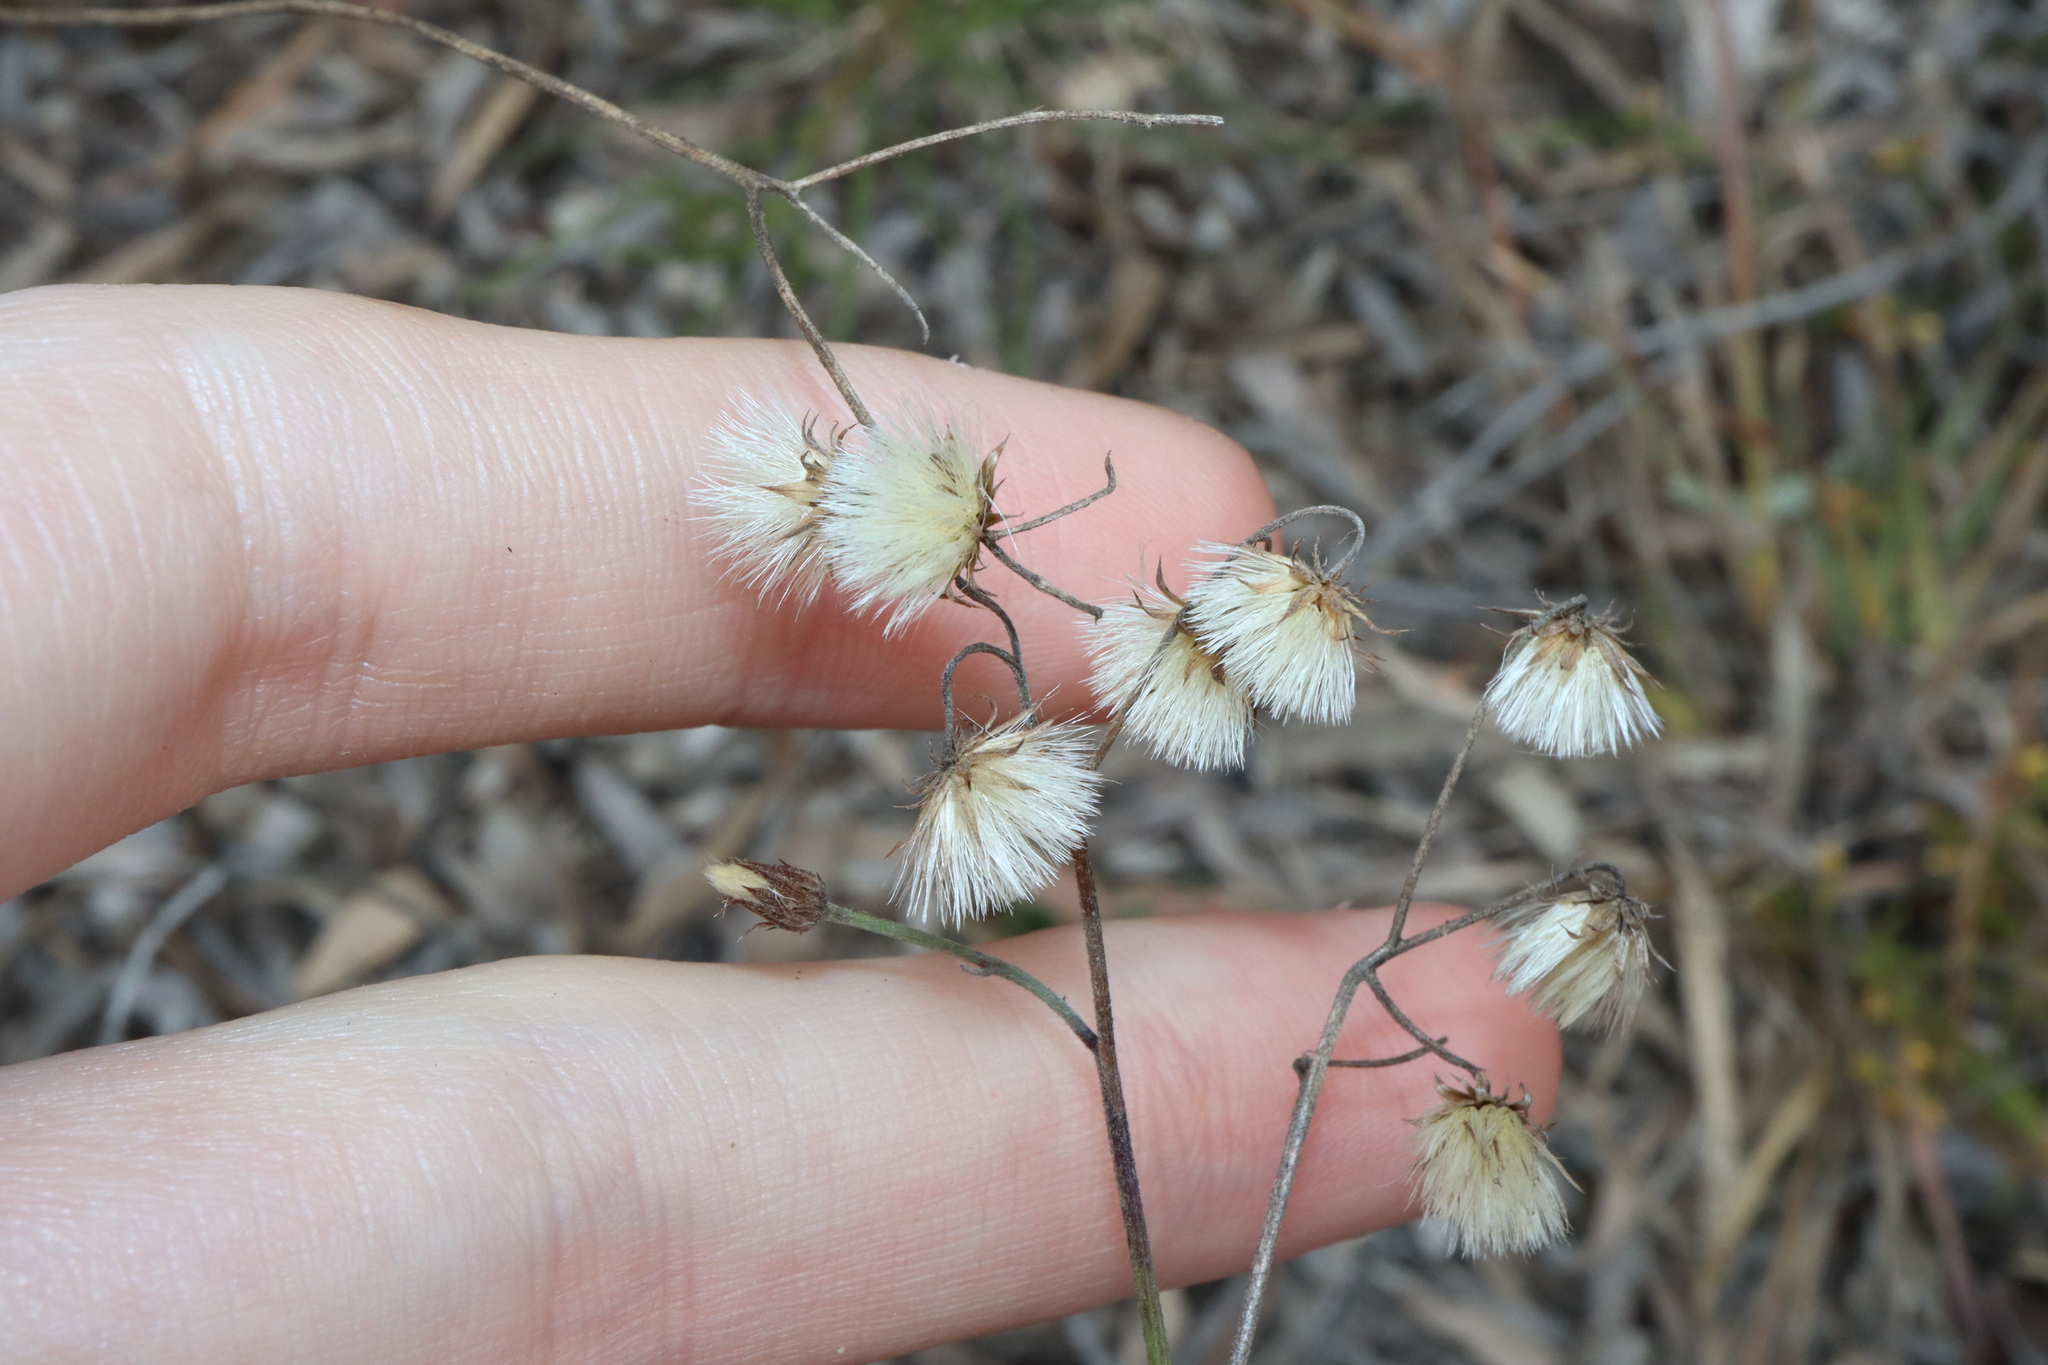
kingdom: Plantae
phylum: Tracheophyta
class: Magnoliopsida
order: Asterales
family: Asteraceae
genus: Cyanthillium
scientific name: Cyanthillium cinereum
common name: Little ironweed
